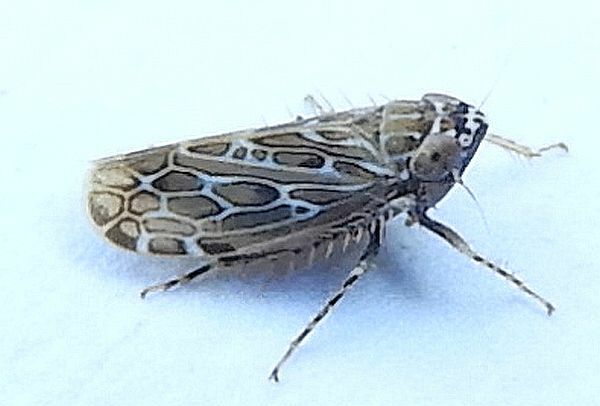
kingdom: Animalia
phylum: Arthropoda
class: Insecta
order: Hemiptera
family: Cicadellidae
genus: Polyamia
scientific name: Polyamia interrupta
